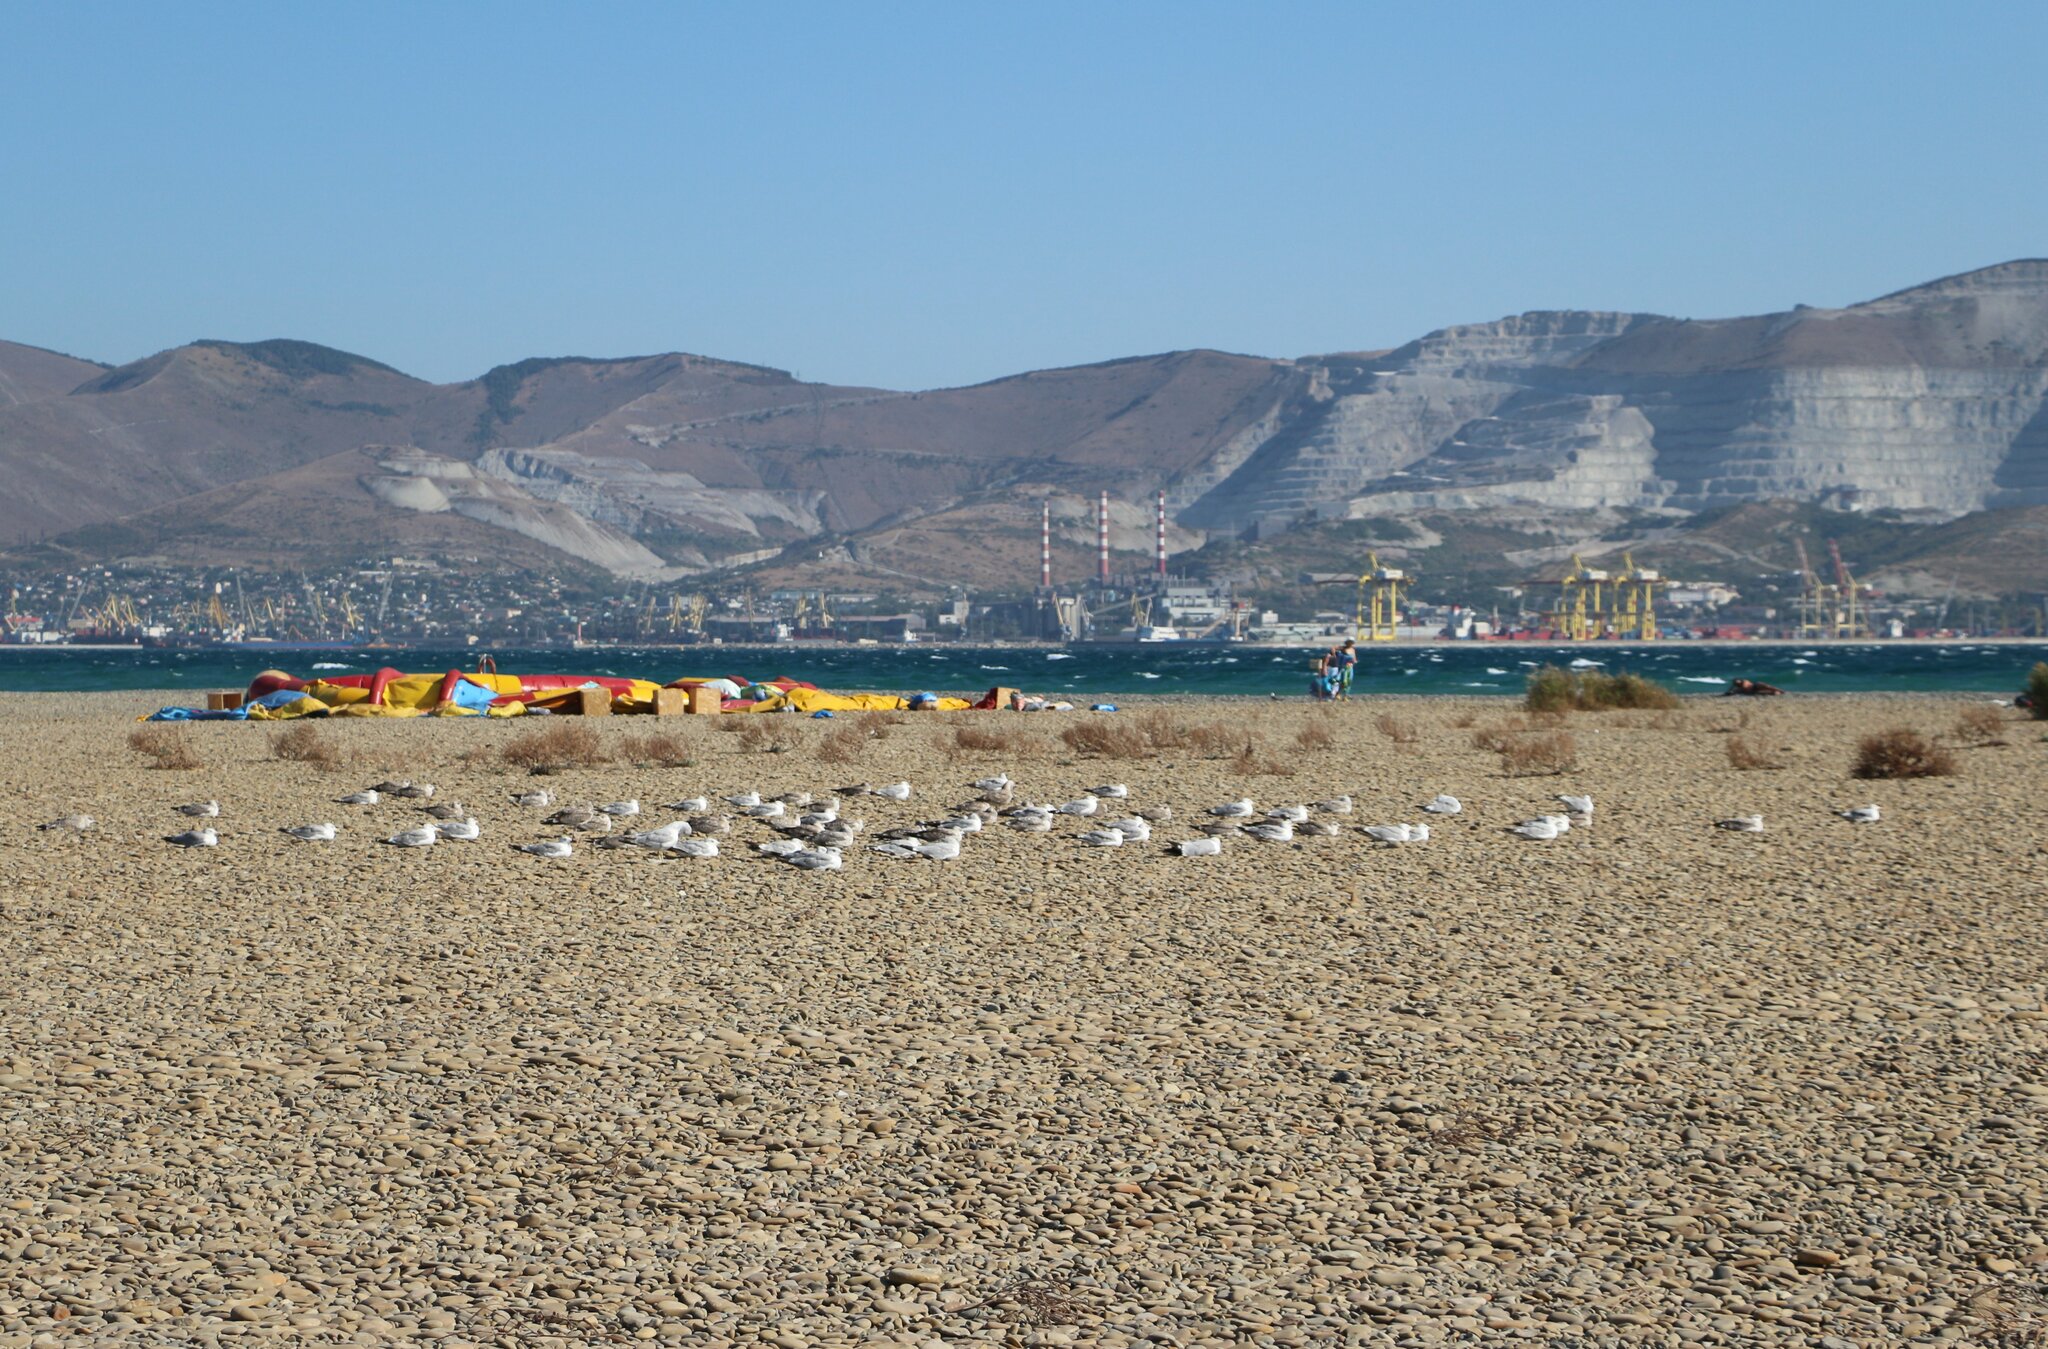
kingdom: Animalia
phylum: Chordata
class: Aves
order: Charadriiformes
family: Laridae
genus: Larus
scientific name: Larus michahellis
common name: Yellow-legged gull
